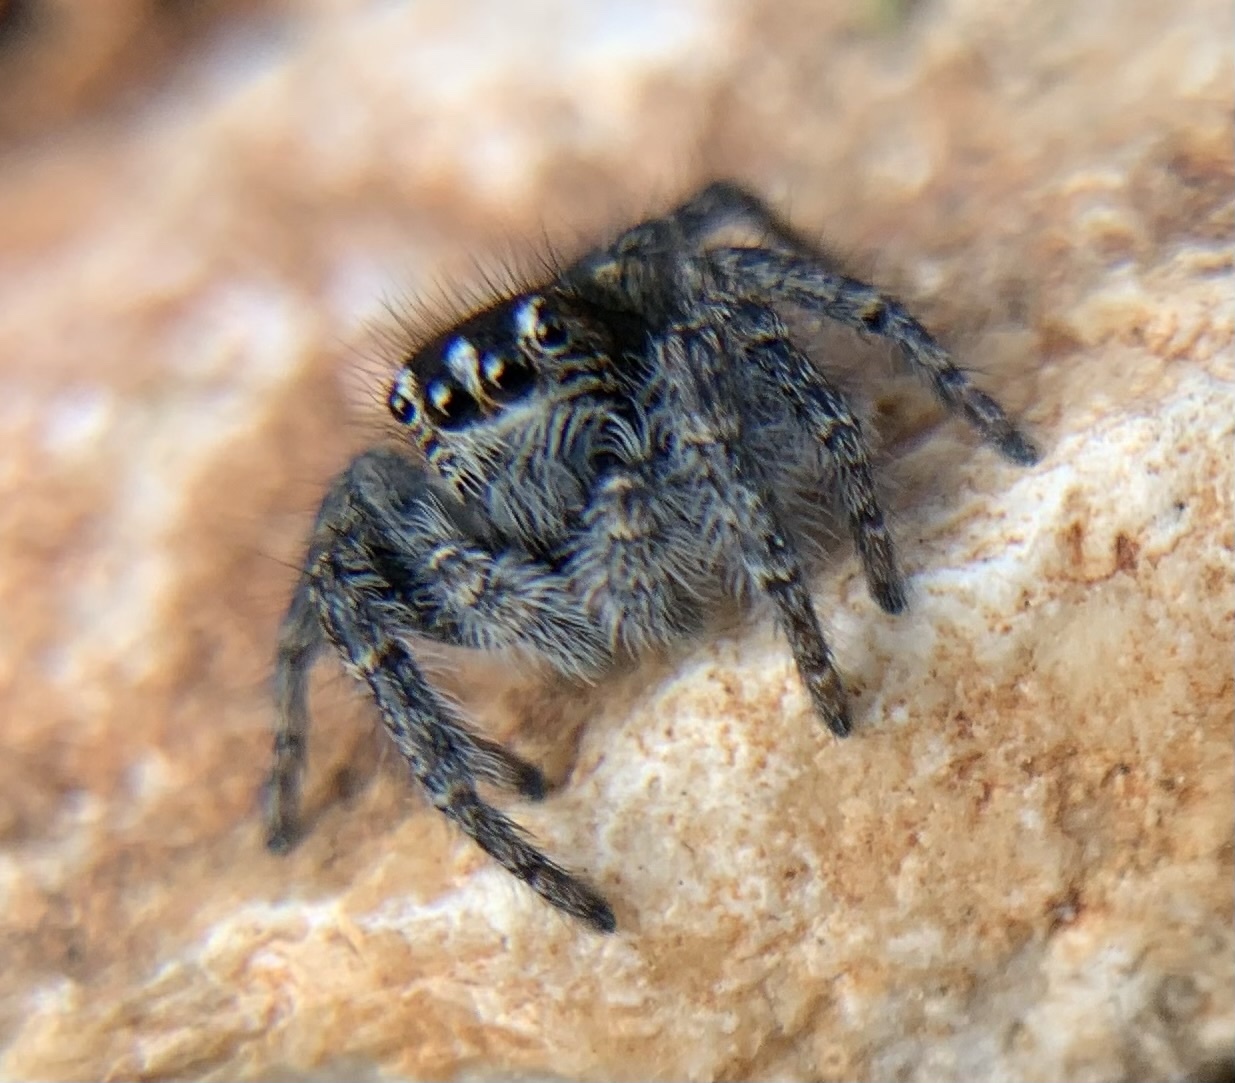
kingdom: Animalia
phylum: Arthropoda
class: Arachnida
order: Araneae
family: Salticidae
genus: Philaeus
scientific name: Philaeus chrysops
